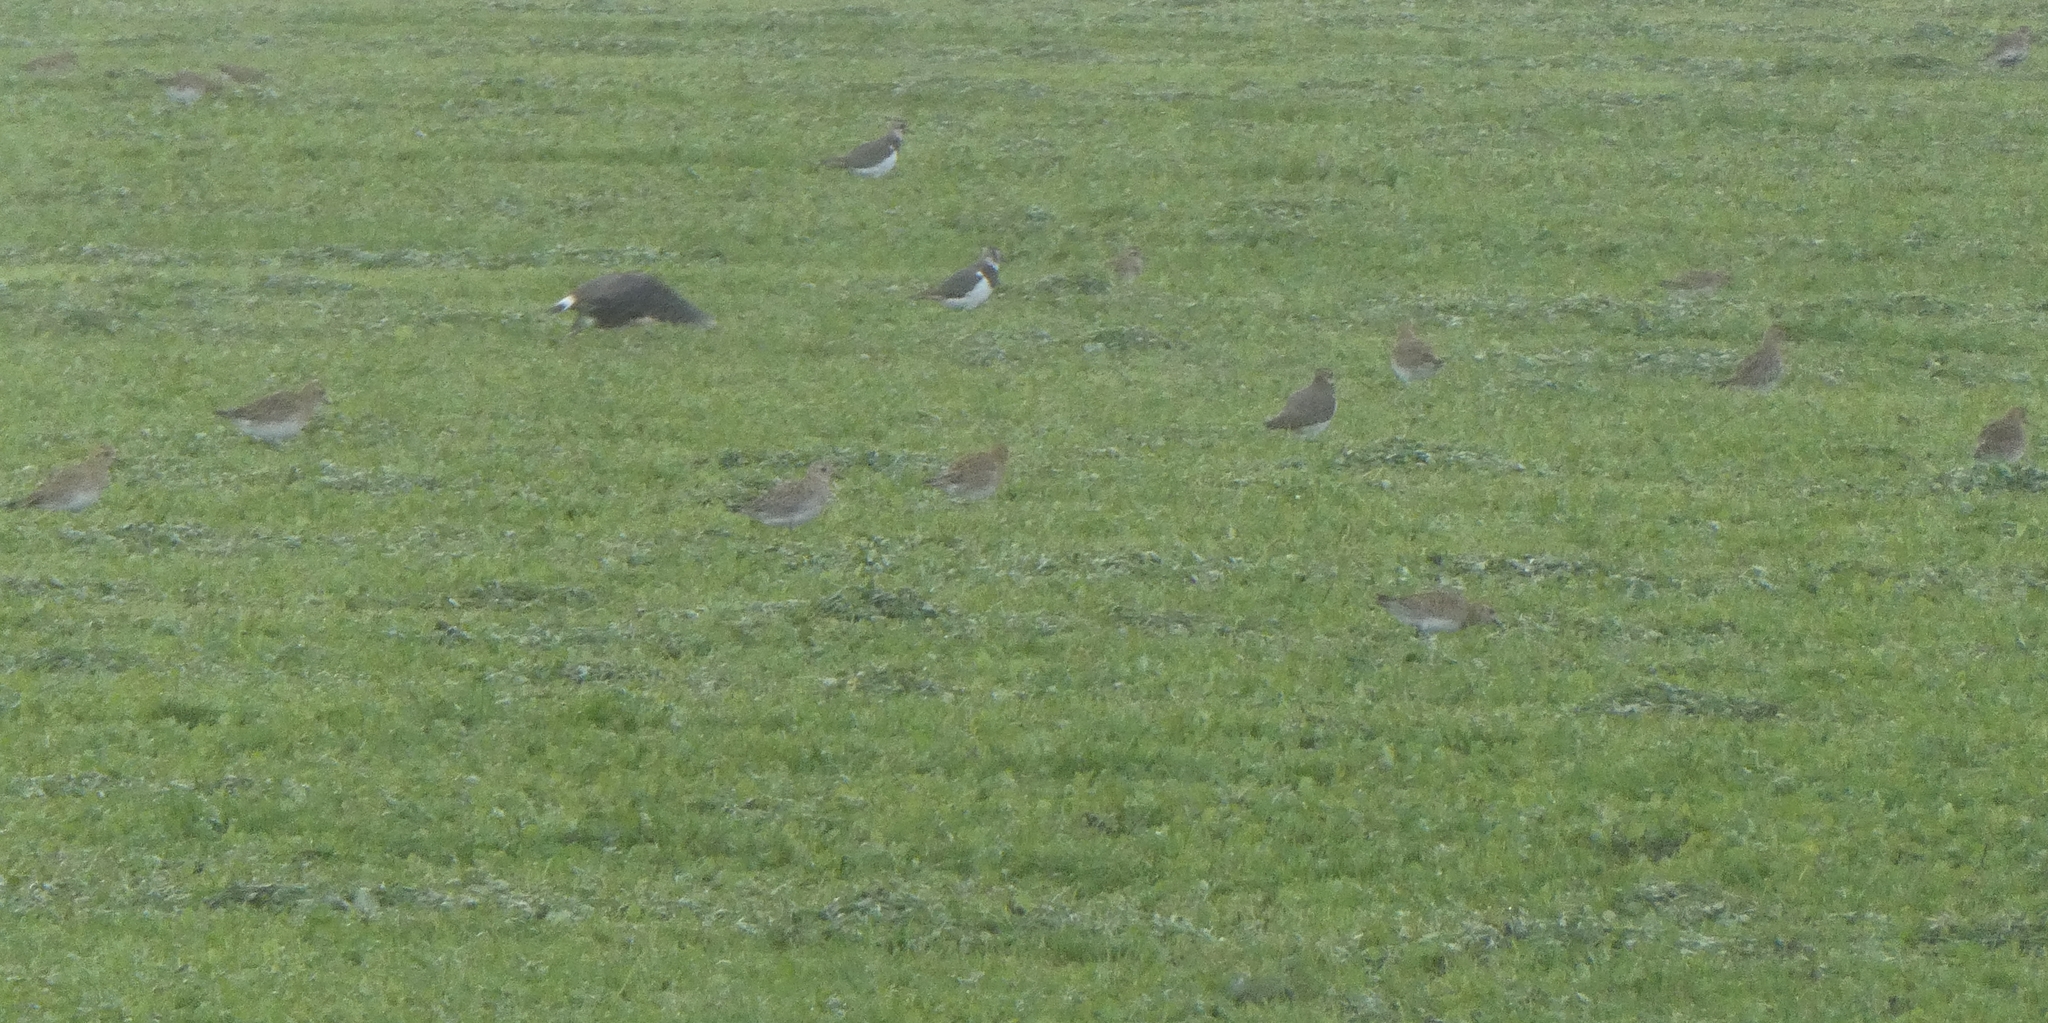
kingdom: Animalia
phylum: Chordata
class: Aves
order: Charadriiformes
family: Charadriidae
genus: Pluvialis
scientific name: Pluvialis apricaria
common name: European golden plover
